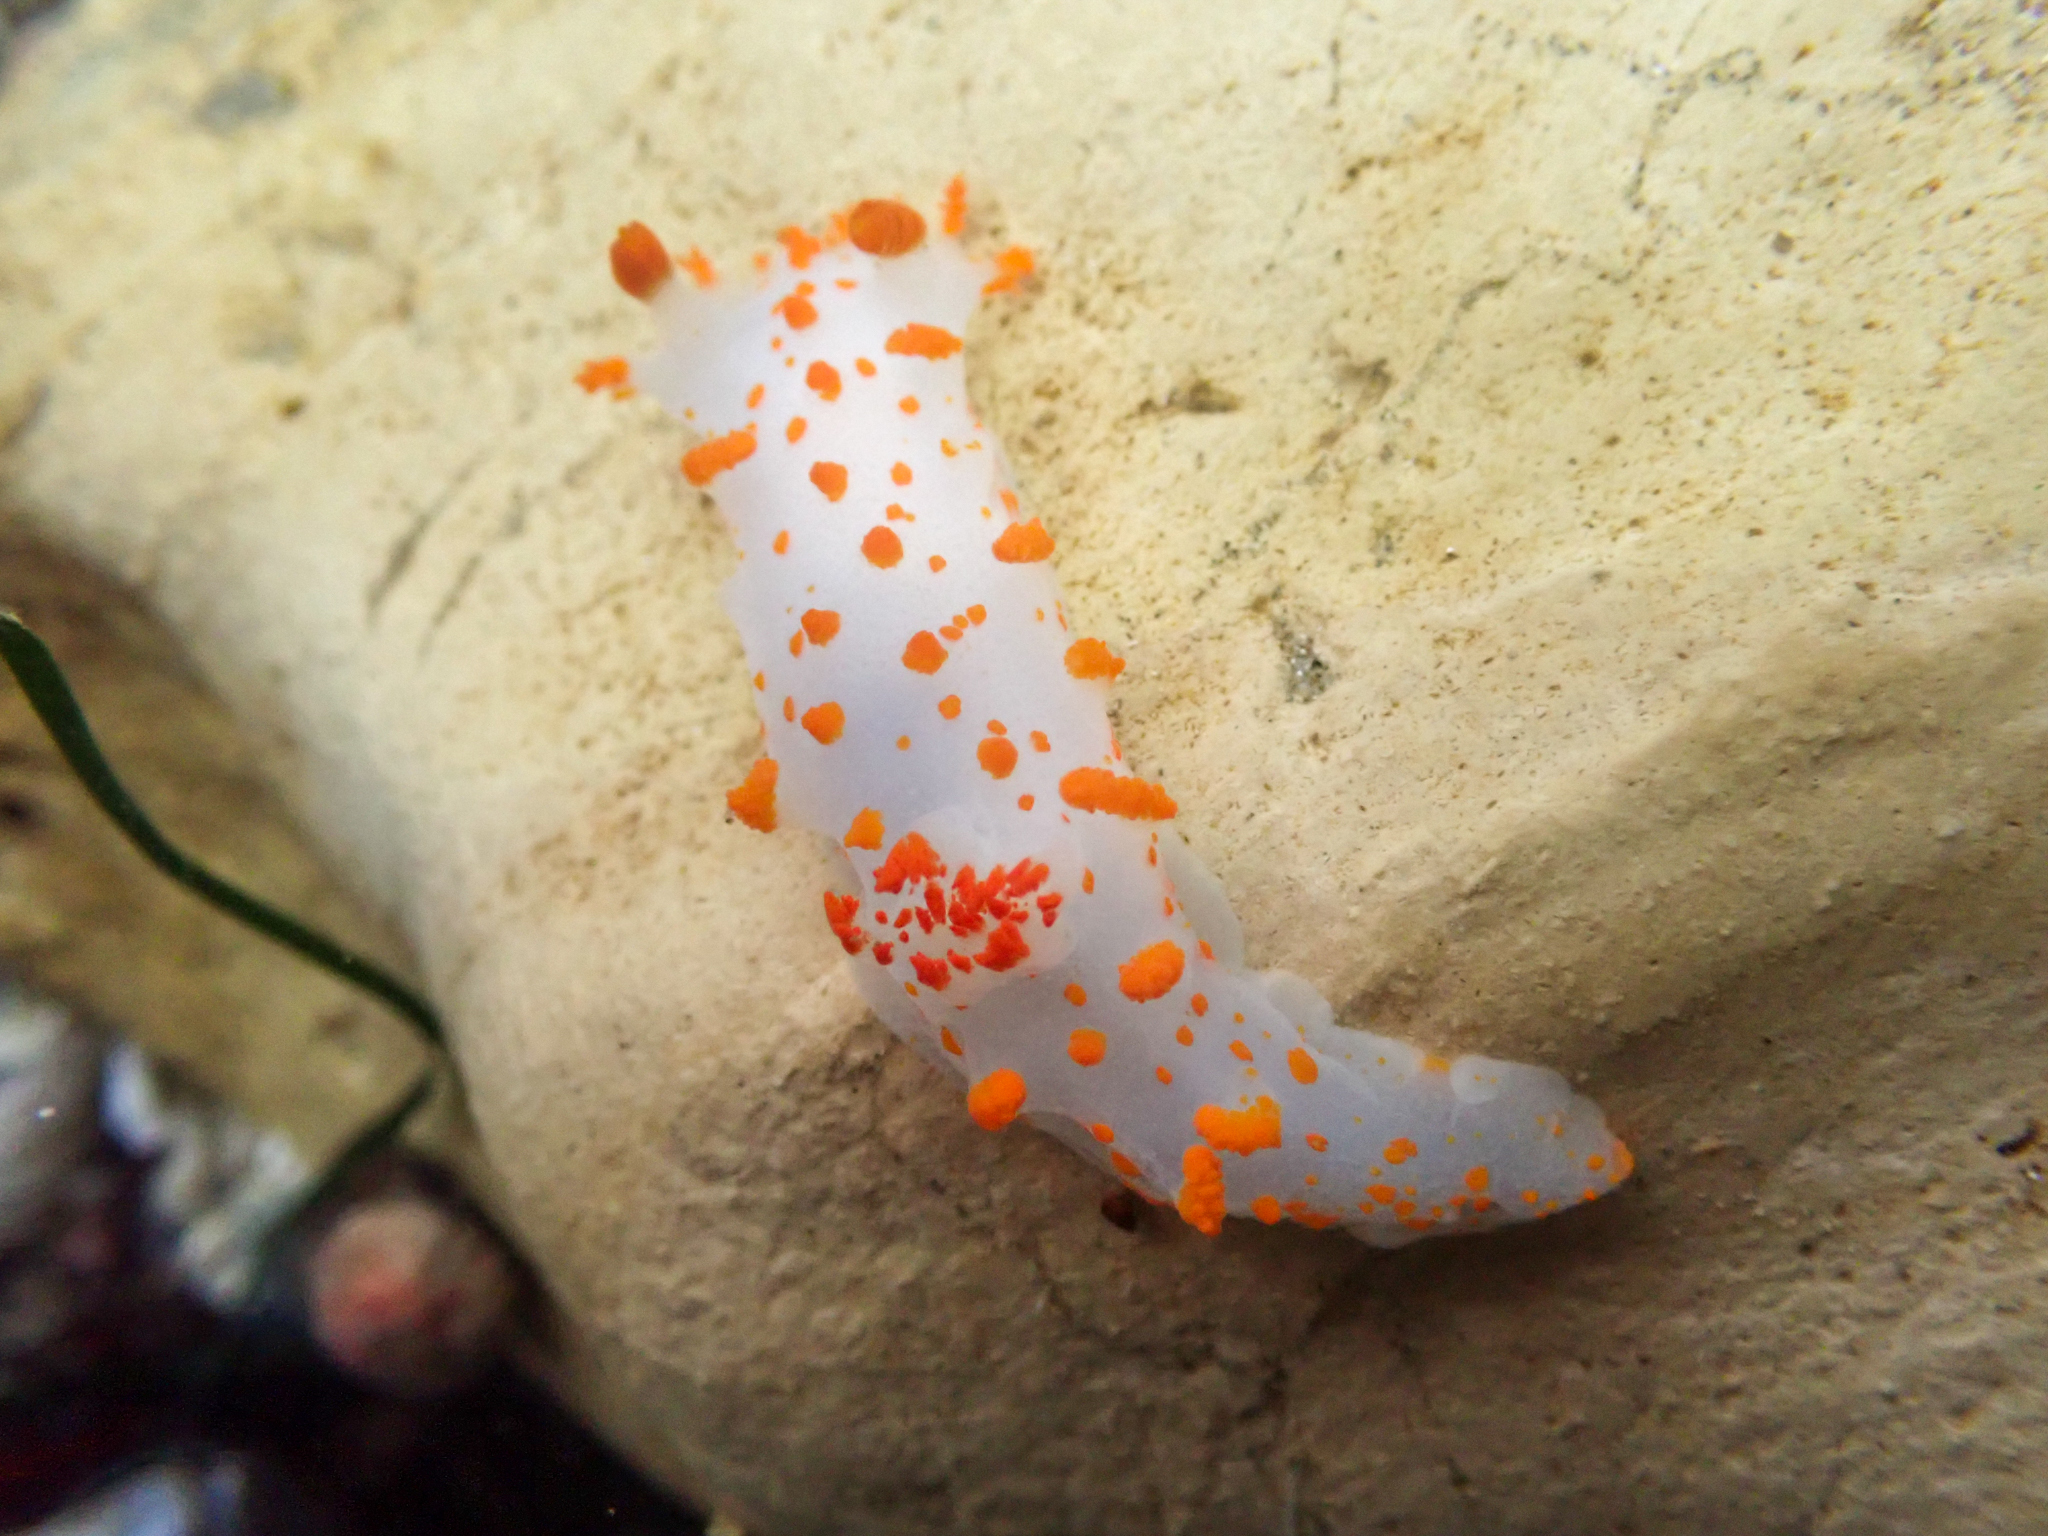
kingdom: Animalia
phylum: Mollusca
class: Gastropoda
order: Nudibranchia
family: Polyceridae
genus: Triopha
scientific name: Triopha catalinae
